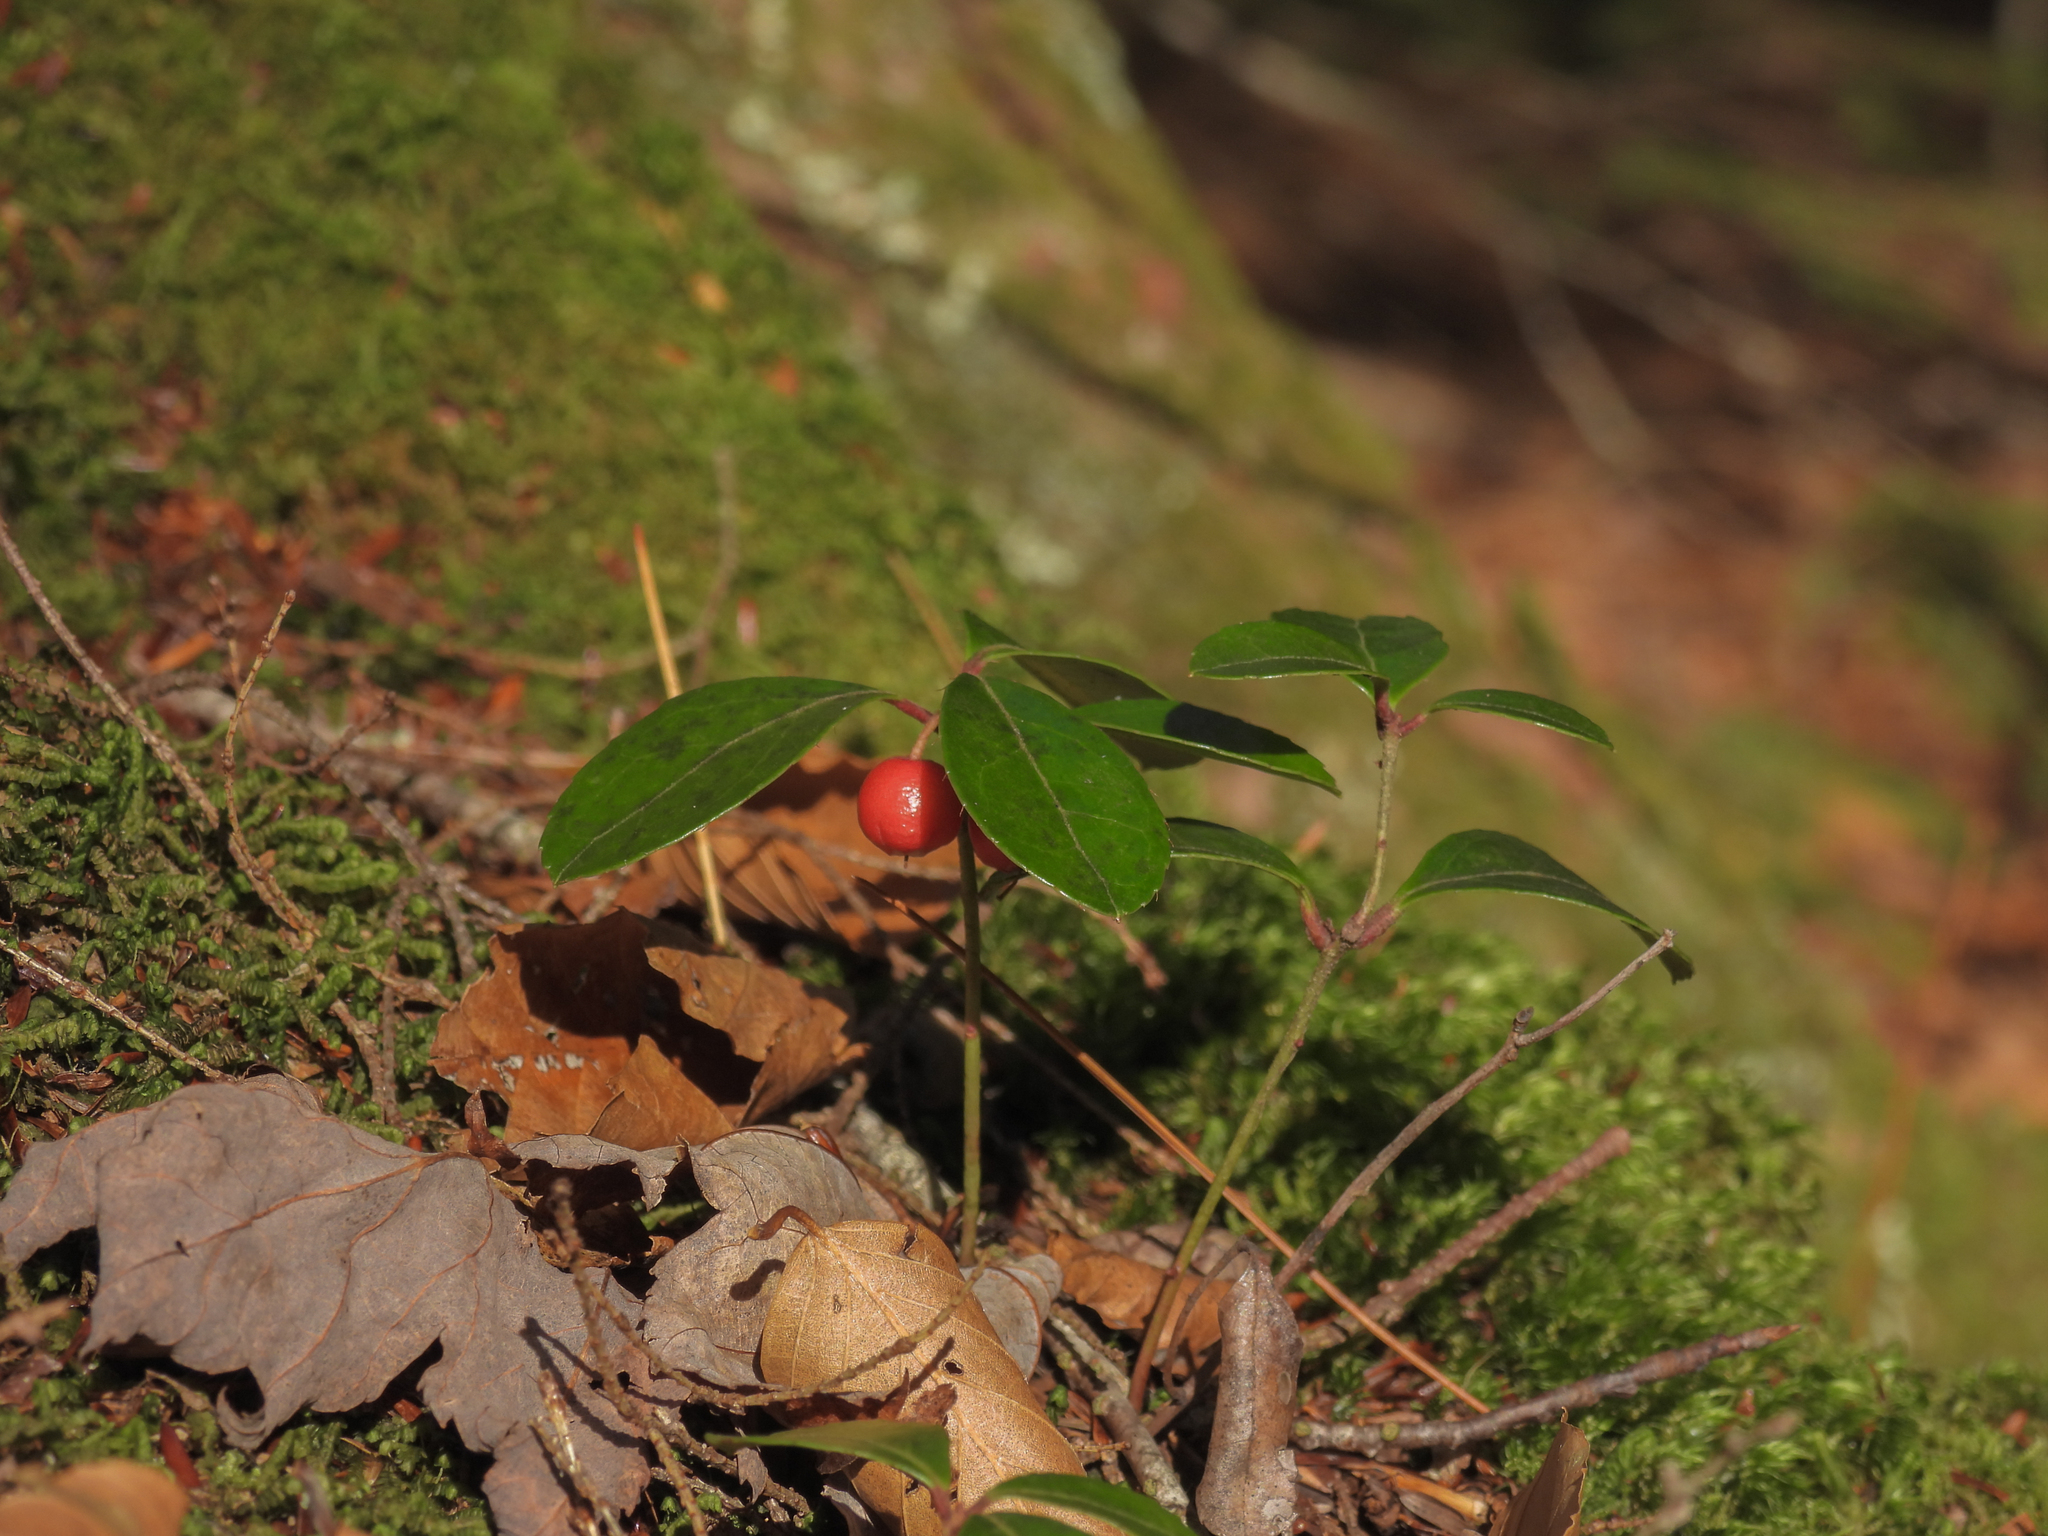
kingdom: Plantae
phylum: Tracheophyta
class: Magnoliopsida
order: Ericales
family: Ericaceae
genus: Gaultheria
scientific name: Gaultheria procumbens
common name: Checkerberry
